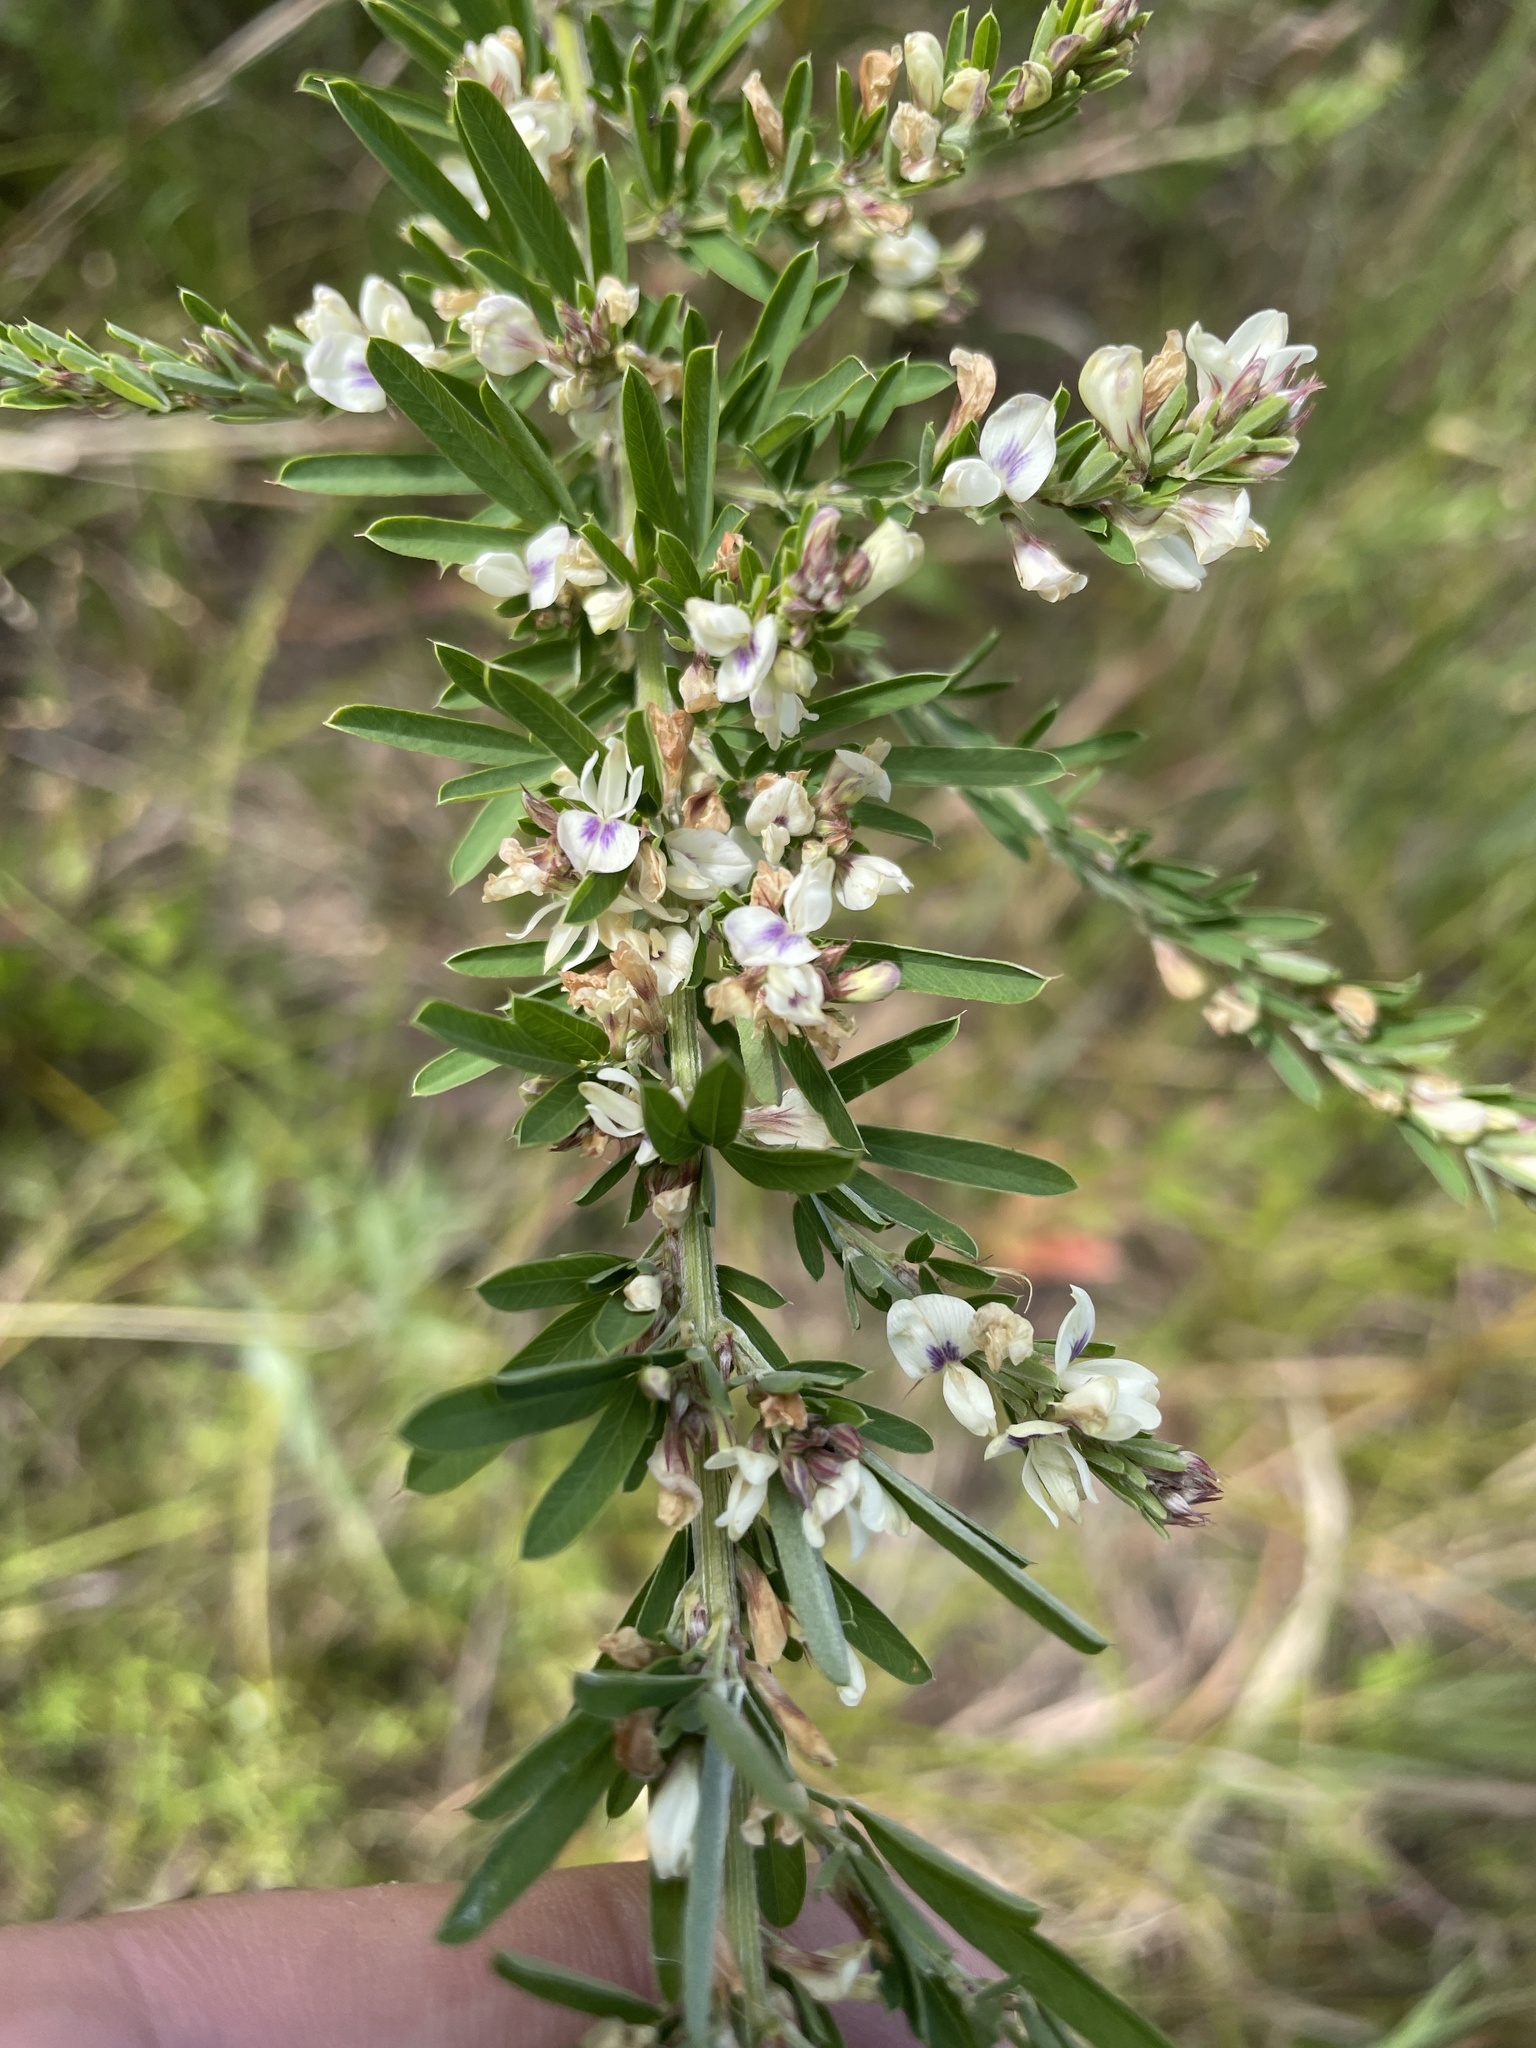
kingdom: Plantae
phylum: Tracheophyta
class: Magnoliopsida
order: Fabales
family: Fabaceae
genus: Lespedeza
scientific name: Lespedeza cuneata
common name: Chinese bush-clover
